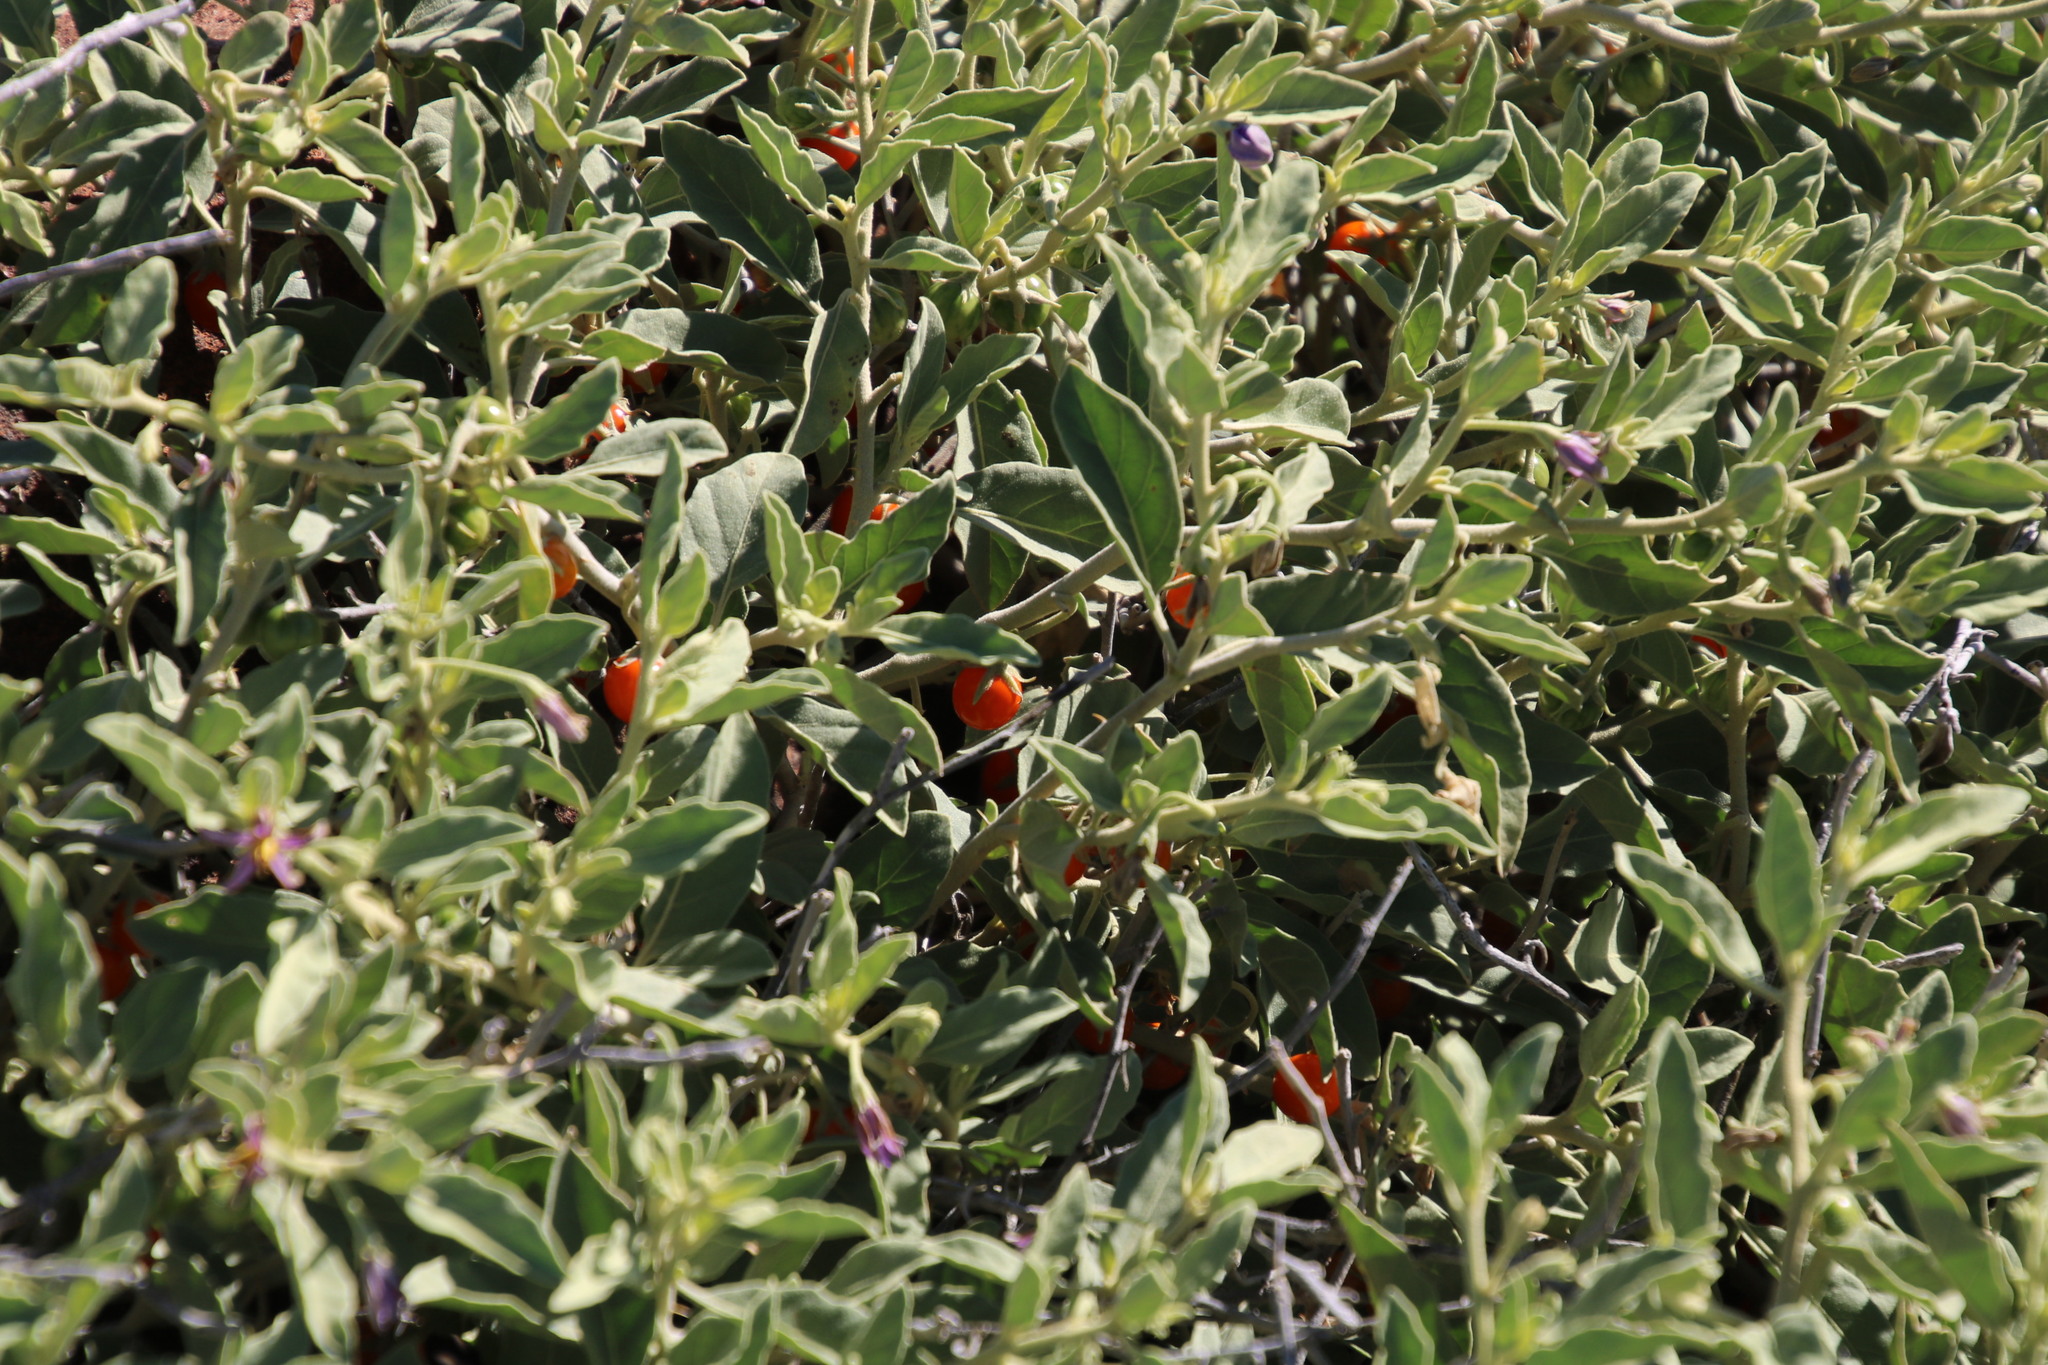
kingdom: Plantae
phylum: Tracheophyta
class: Magnoliopsida
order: Solanales
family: Solanaceae
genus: Solanum
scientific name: Solanum burchellii
